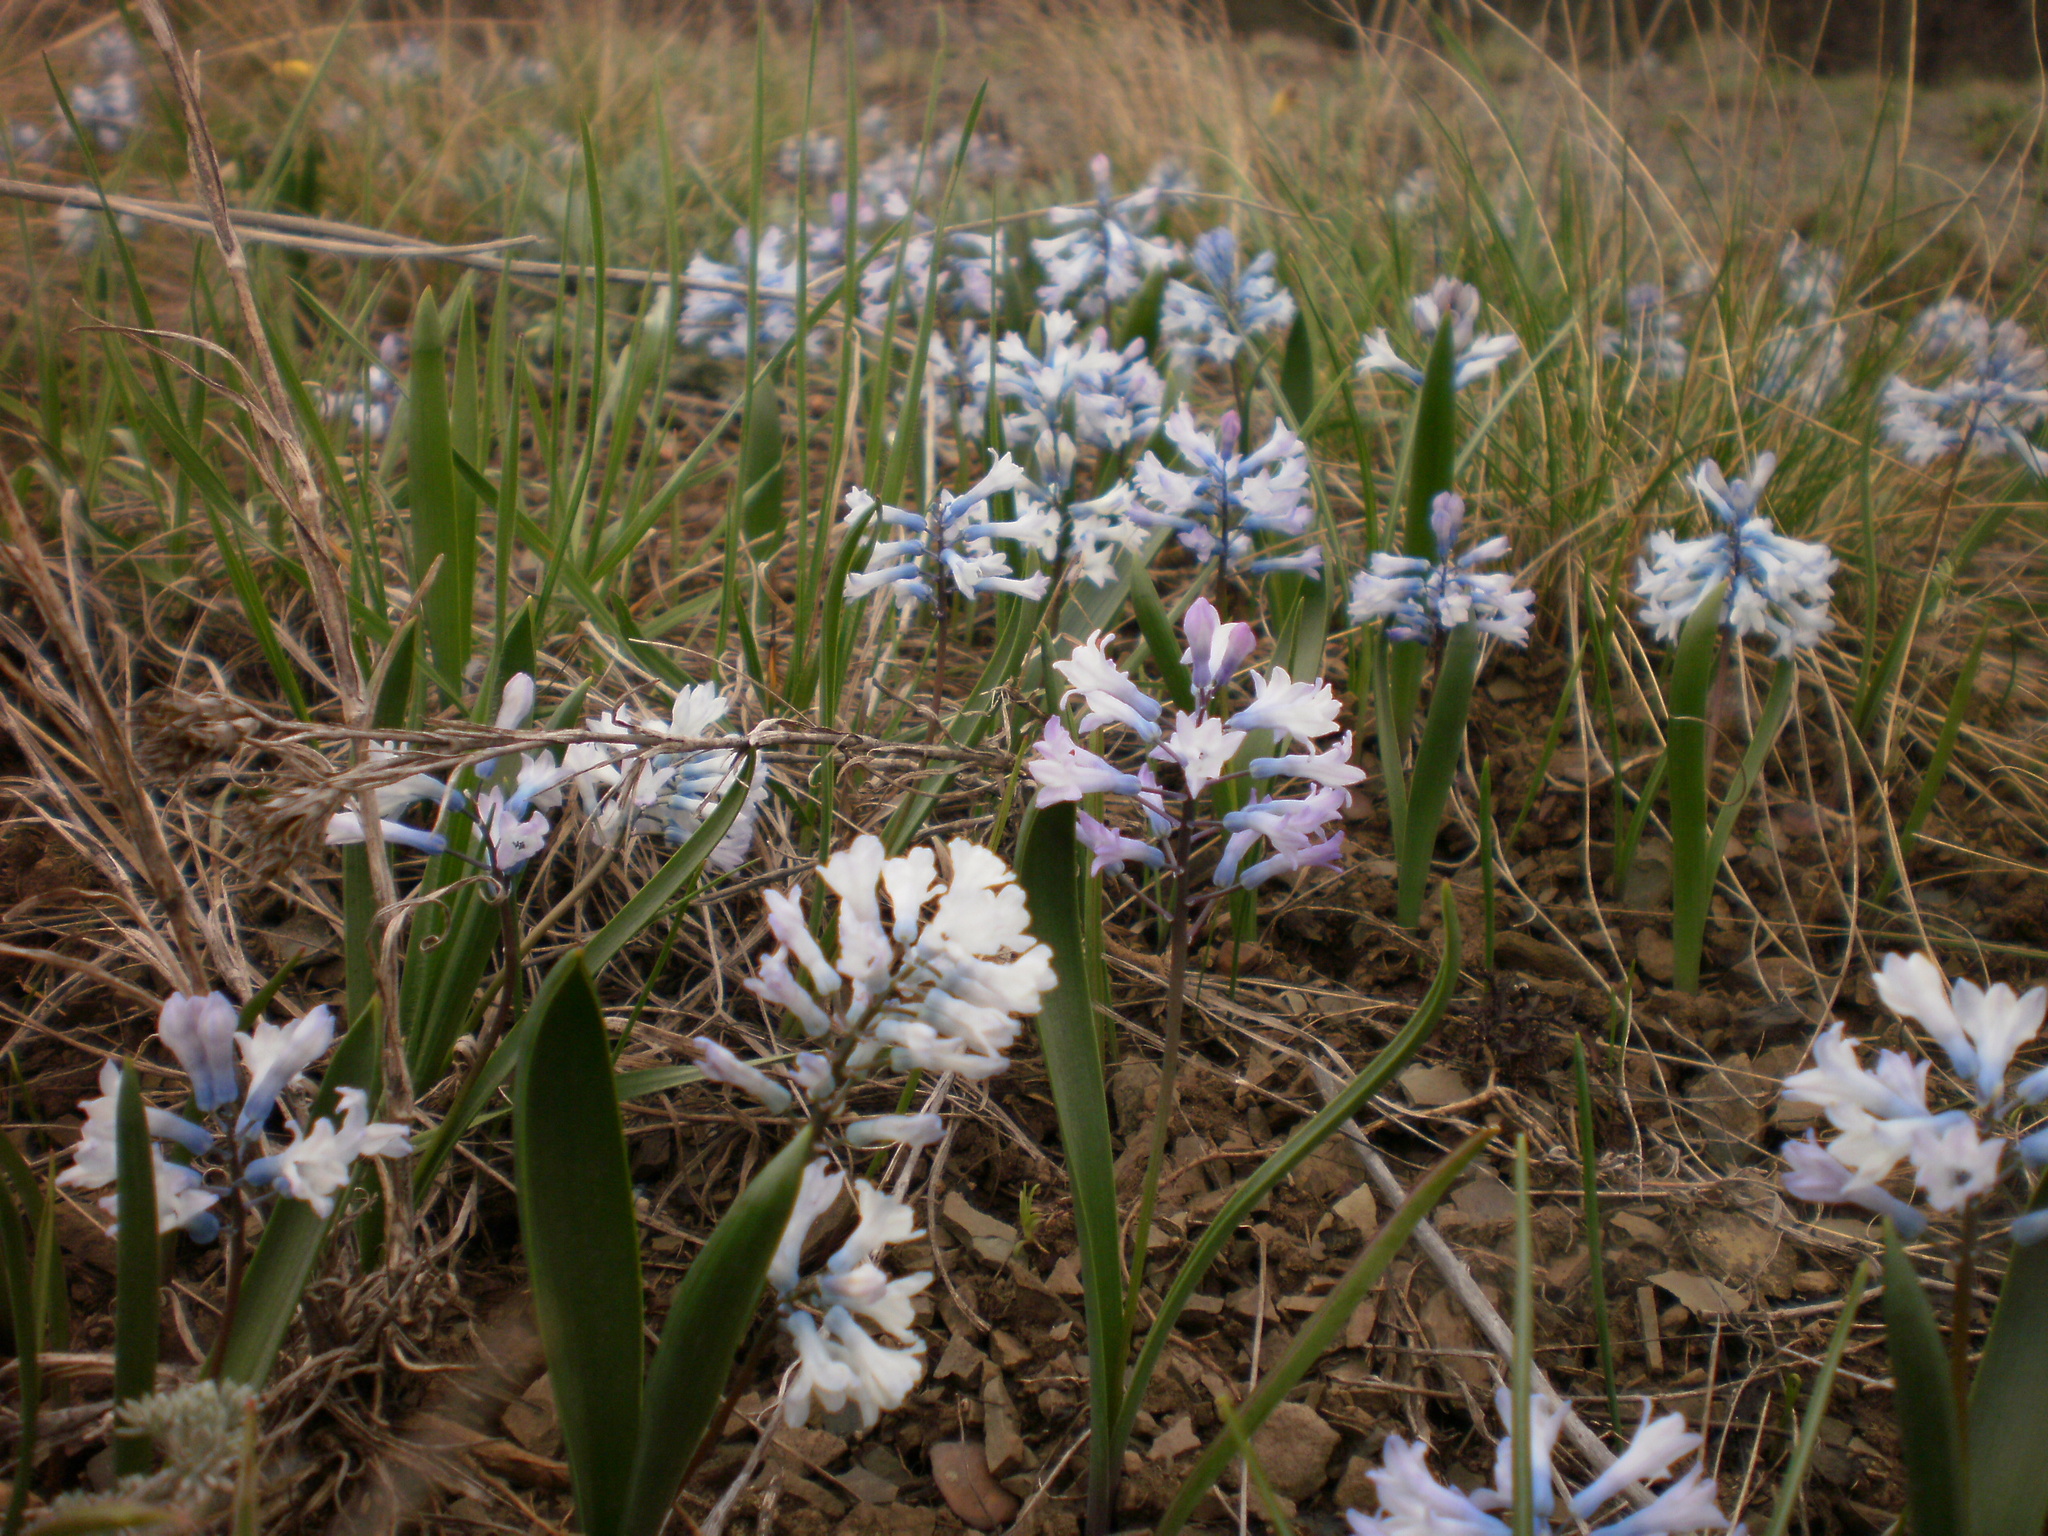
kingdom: Plantae
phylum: Tracheophyta
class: Liliopsida
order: Asparagales
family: Asparagaceae
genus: Hyacinthella
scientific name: Hyacinthella pallasiana
